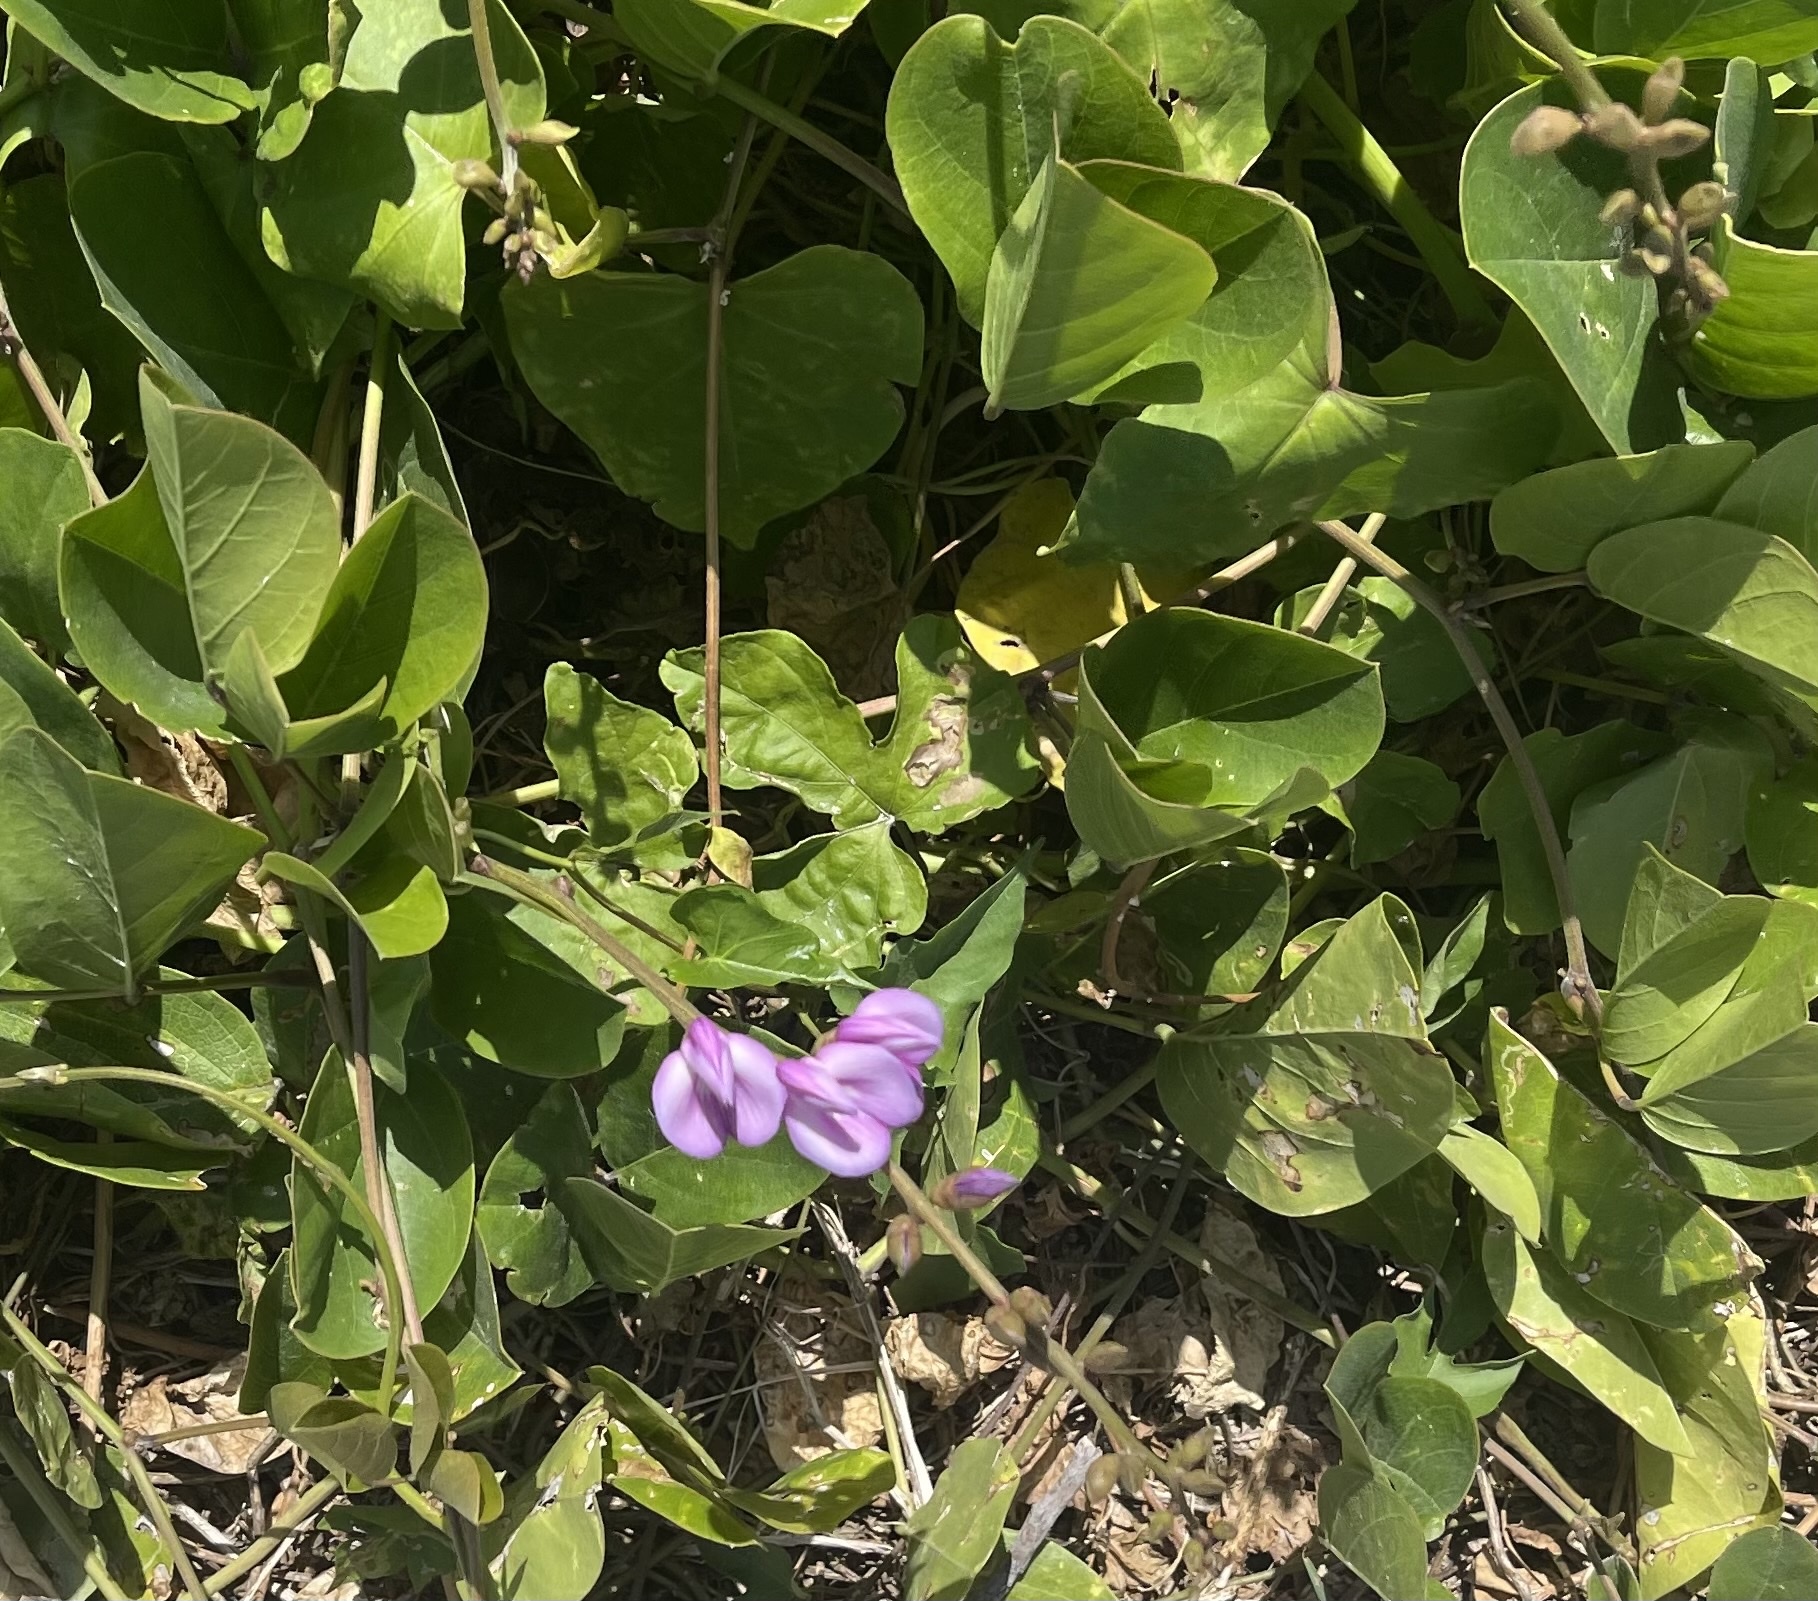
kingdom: Plantae
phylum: Tracheophyta
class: Magnoliopsida
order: Fabales
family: Fabaceae
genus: Canavalia
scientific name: Canavalia rosea
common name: Beach-bean
